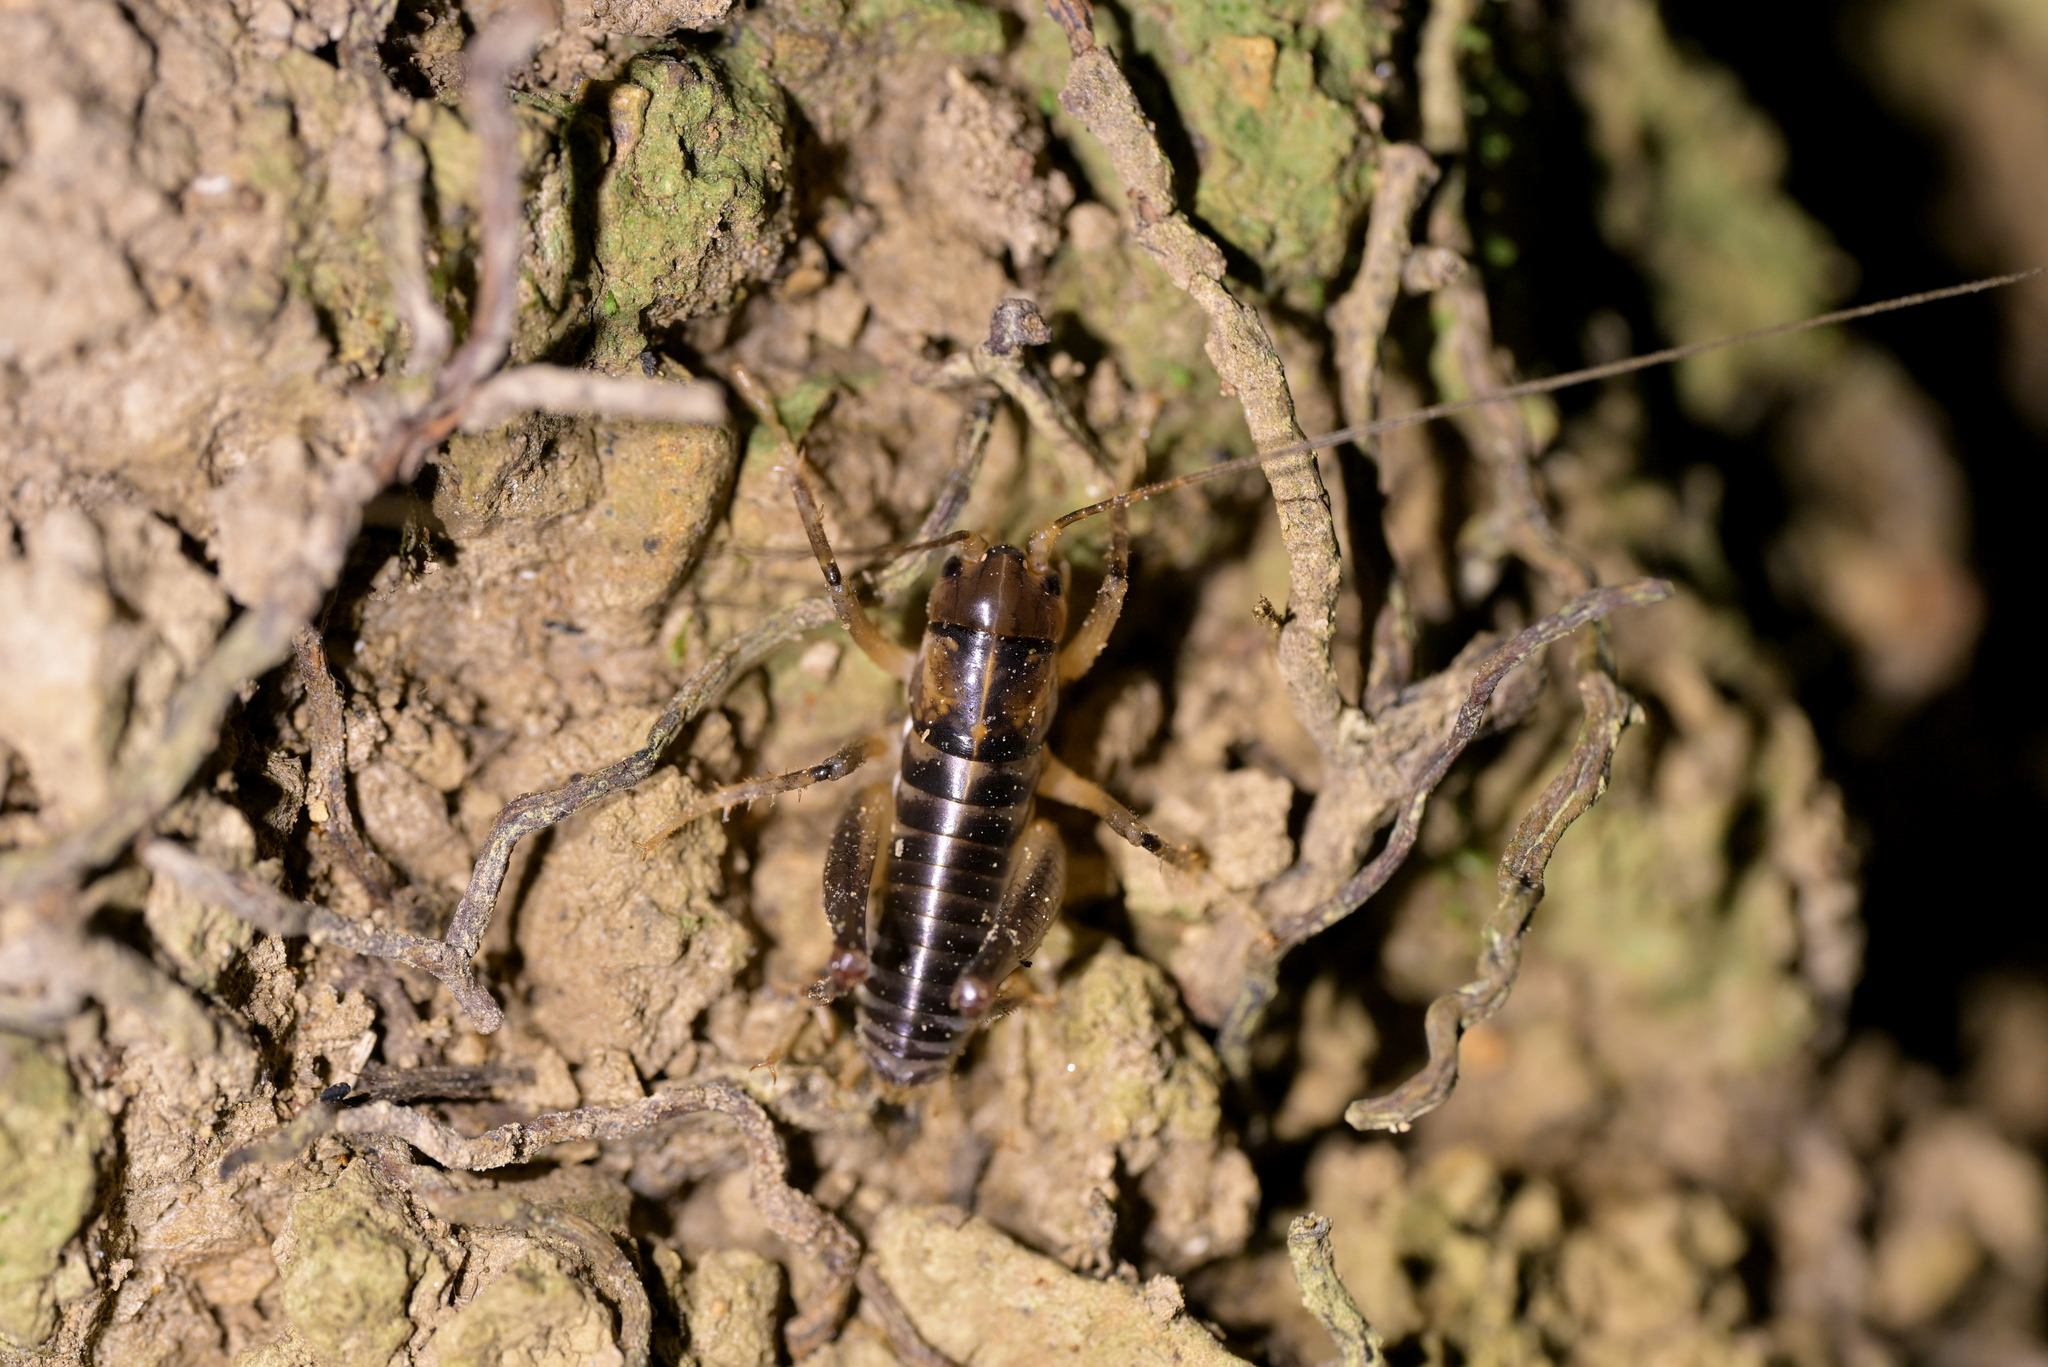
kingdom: Animalia
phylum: Arthropoda
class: Insecta
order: Orthoptera
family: Anostostomatidae
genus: Hemiandrus
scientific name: Hemiandrus pallitarsis
